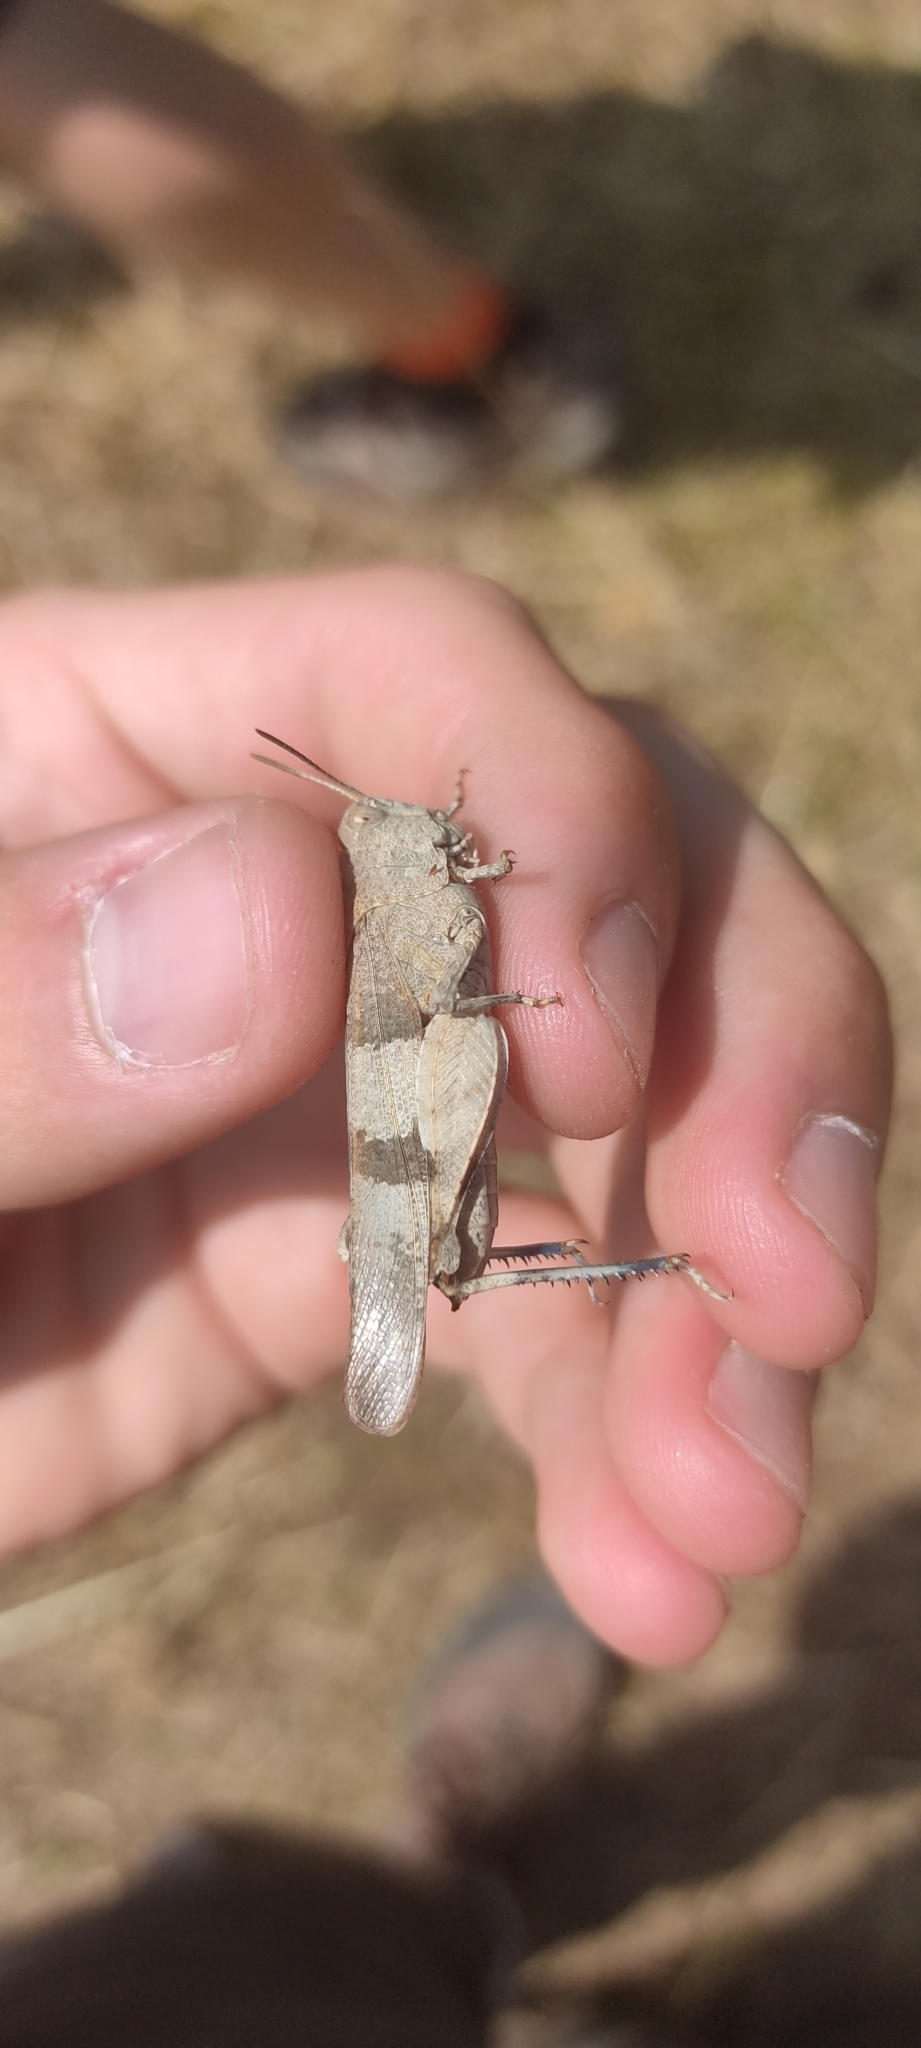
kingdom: Animalia
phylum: Arthropoda
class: Insecta
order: Orthoptera
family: Acrididae
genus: Oedipoda
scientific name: Oedipoda caerulescens
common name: Blue-winged grasshopper
